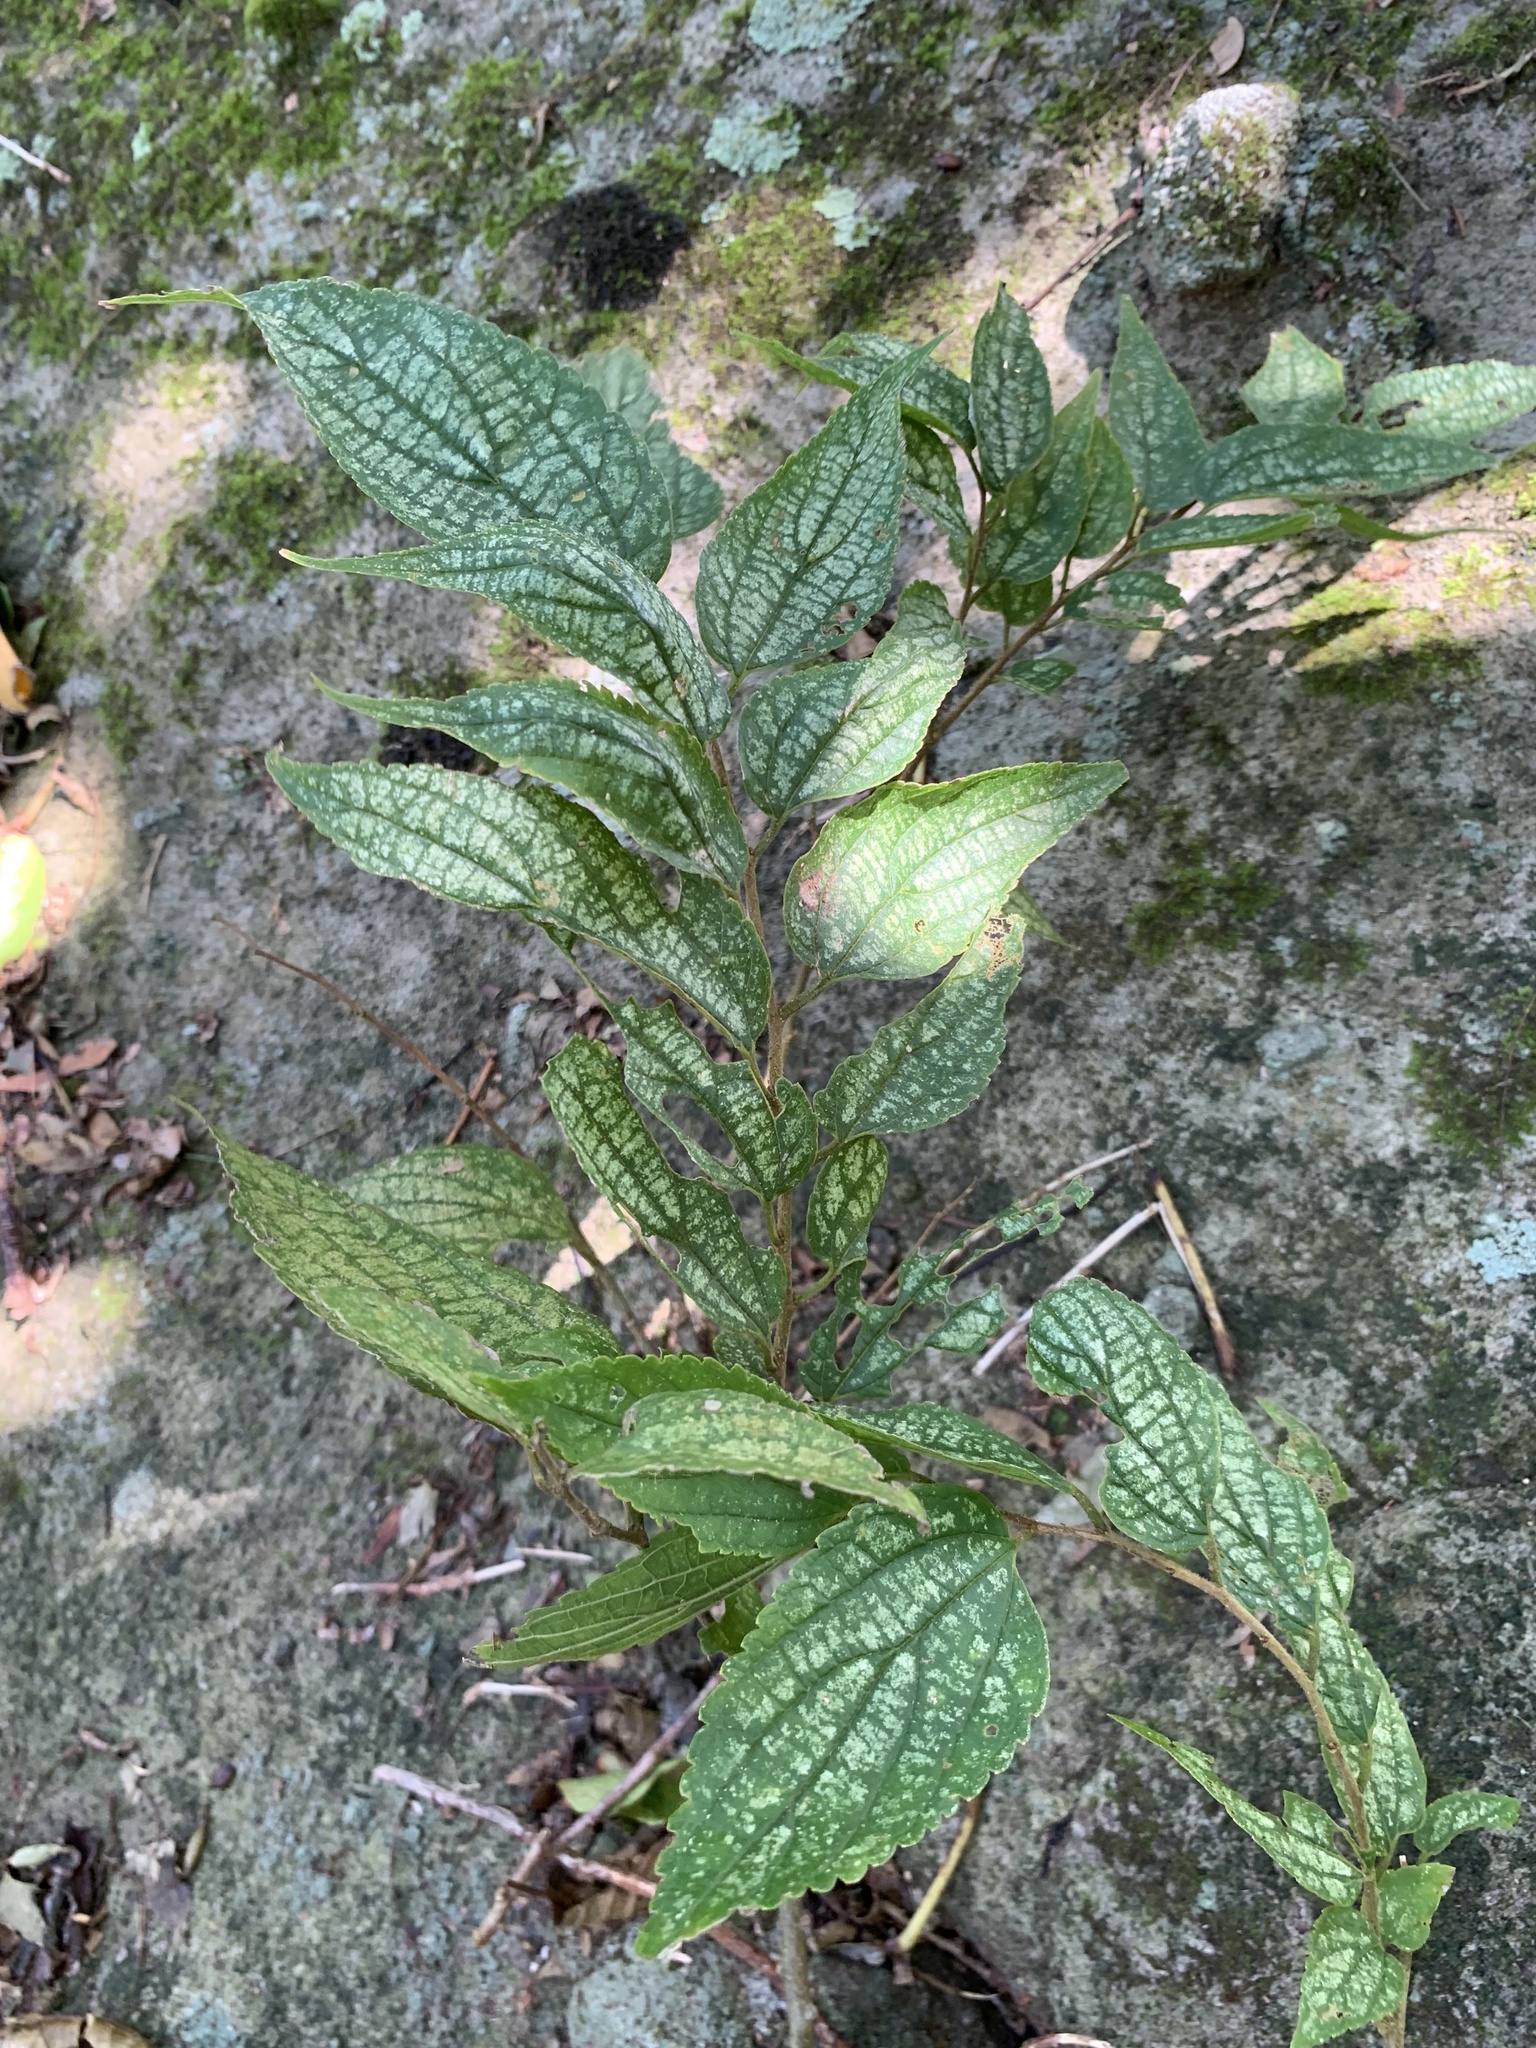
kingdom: Plantae
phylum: Tracheophyta
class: Magnoliopsida
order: Rosales
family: Cannabaceae
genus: Celtis
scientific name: Celtis boninensis
